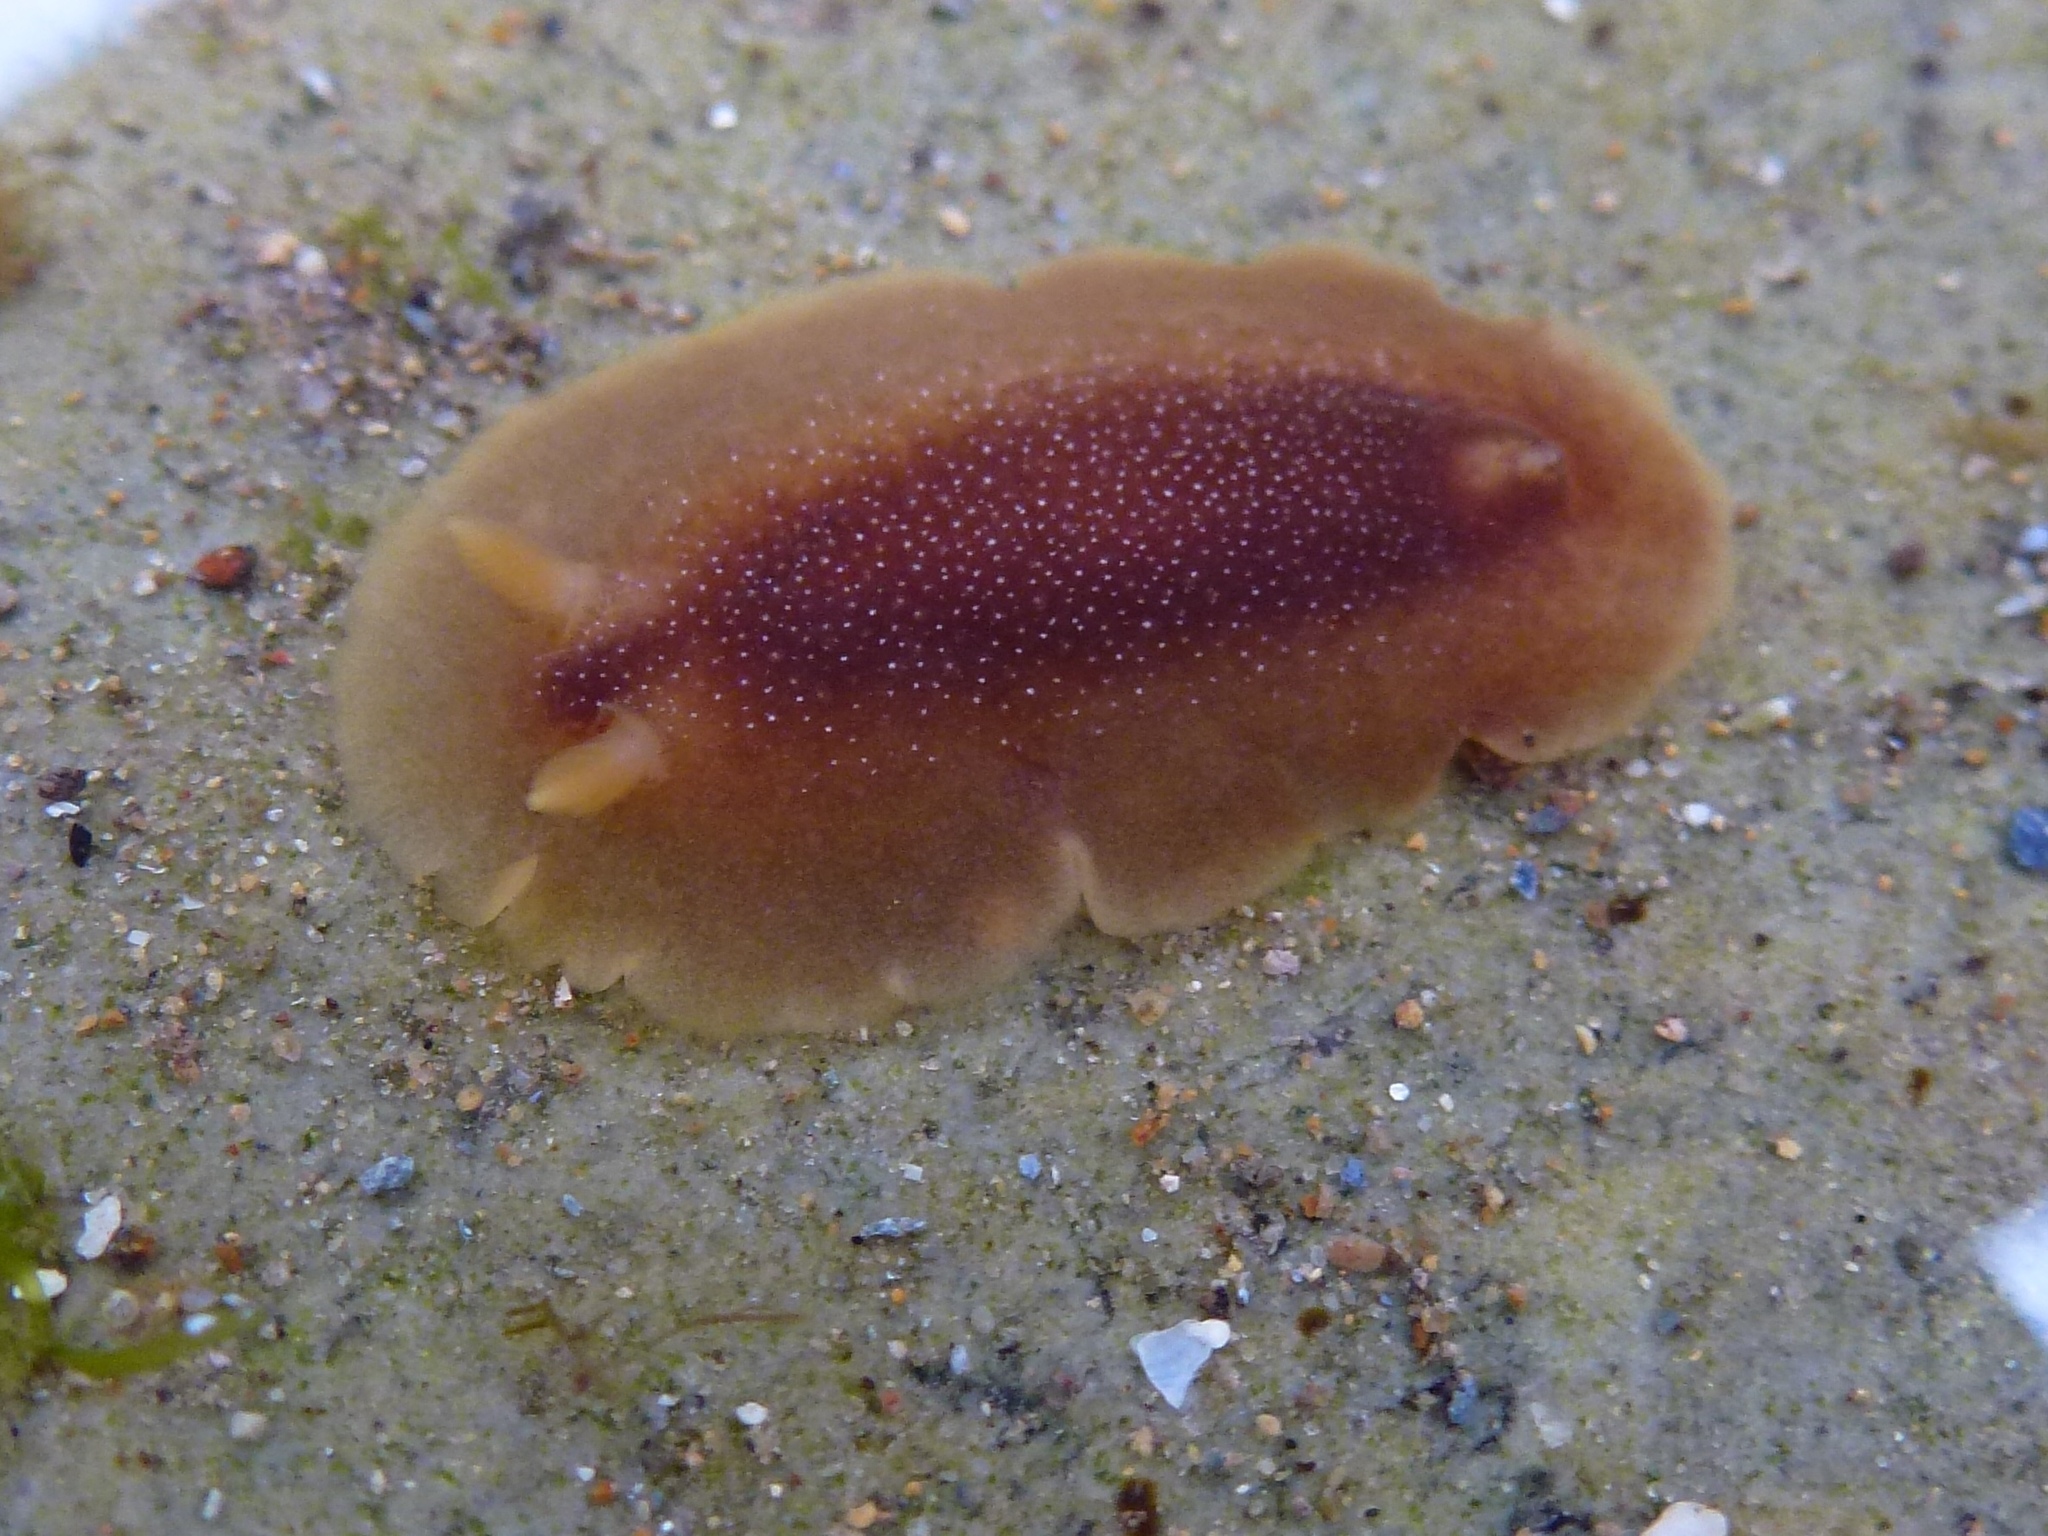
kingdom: Animalia
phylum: Mollusca
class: Gastropoda
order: Nudibranchia
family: Dendrodorididae
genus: Doriopsilla
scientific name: Doriopsilla albopunctata
